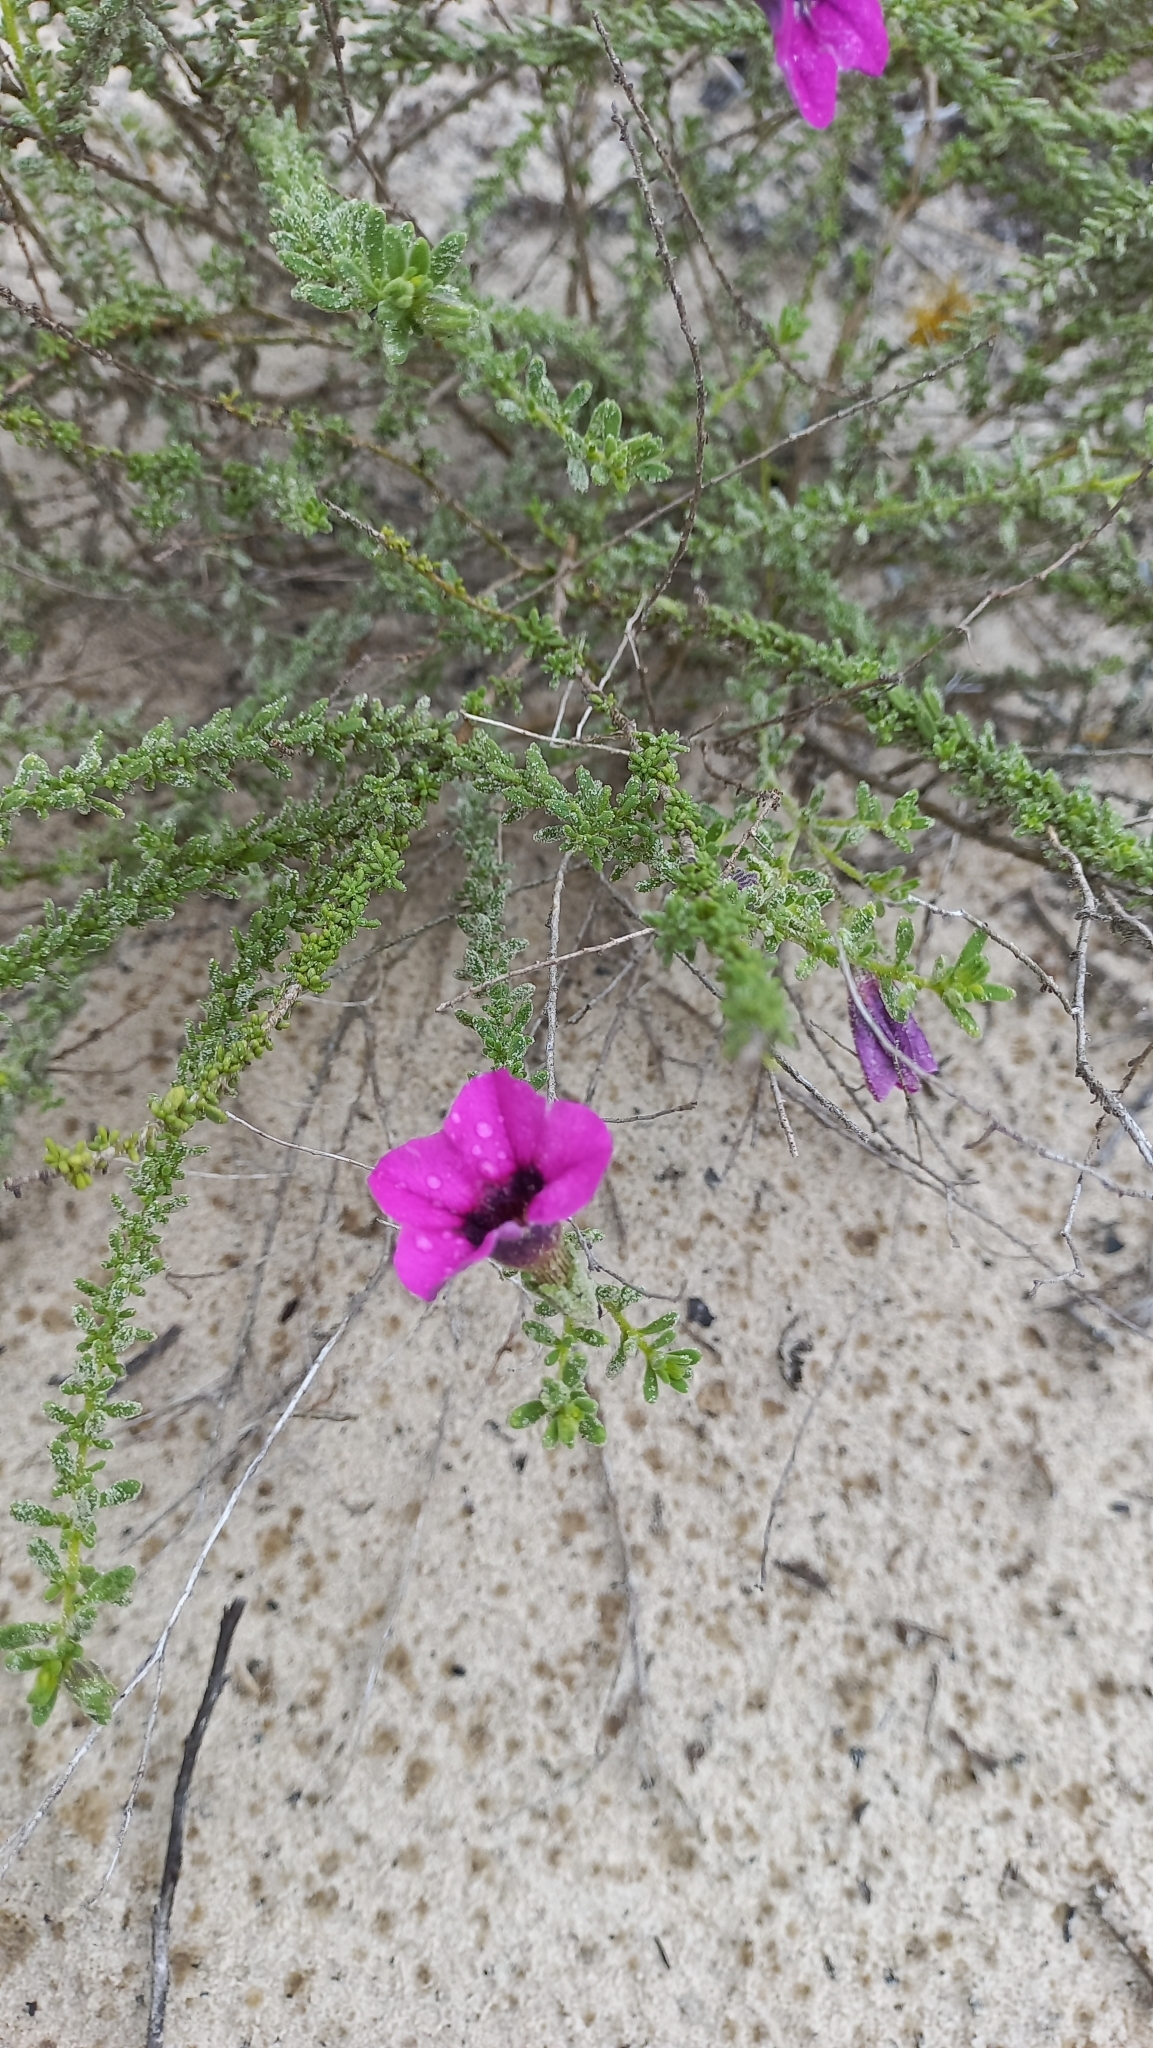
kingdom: Plantae
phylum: Tracheophyta
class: Magnoliopsida
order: Solanales
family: Solanaceae
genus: Calibrachoa
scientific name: Calibrachoa heterophylla
